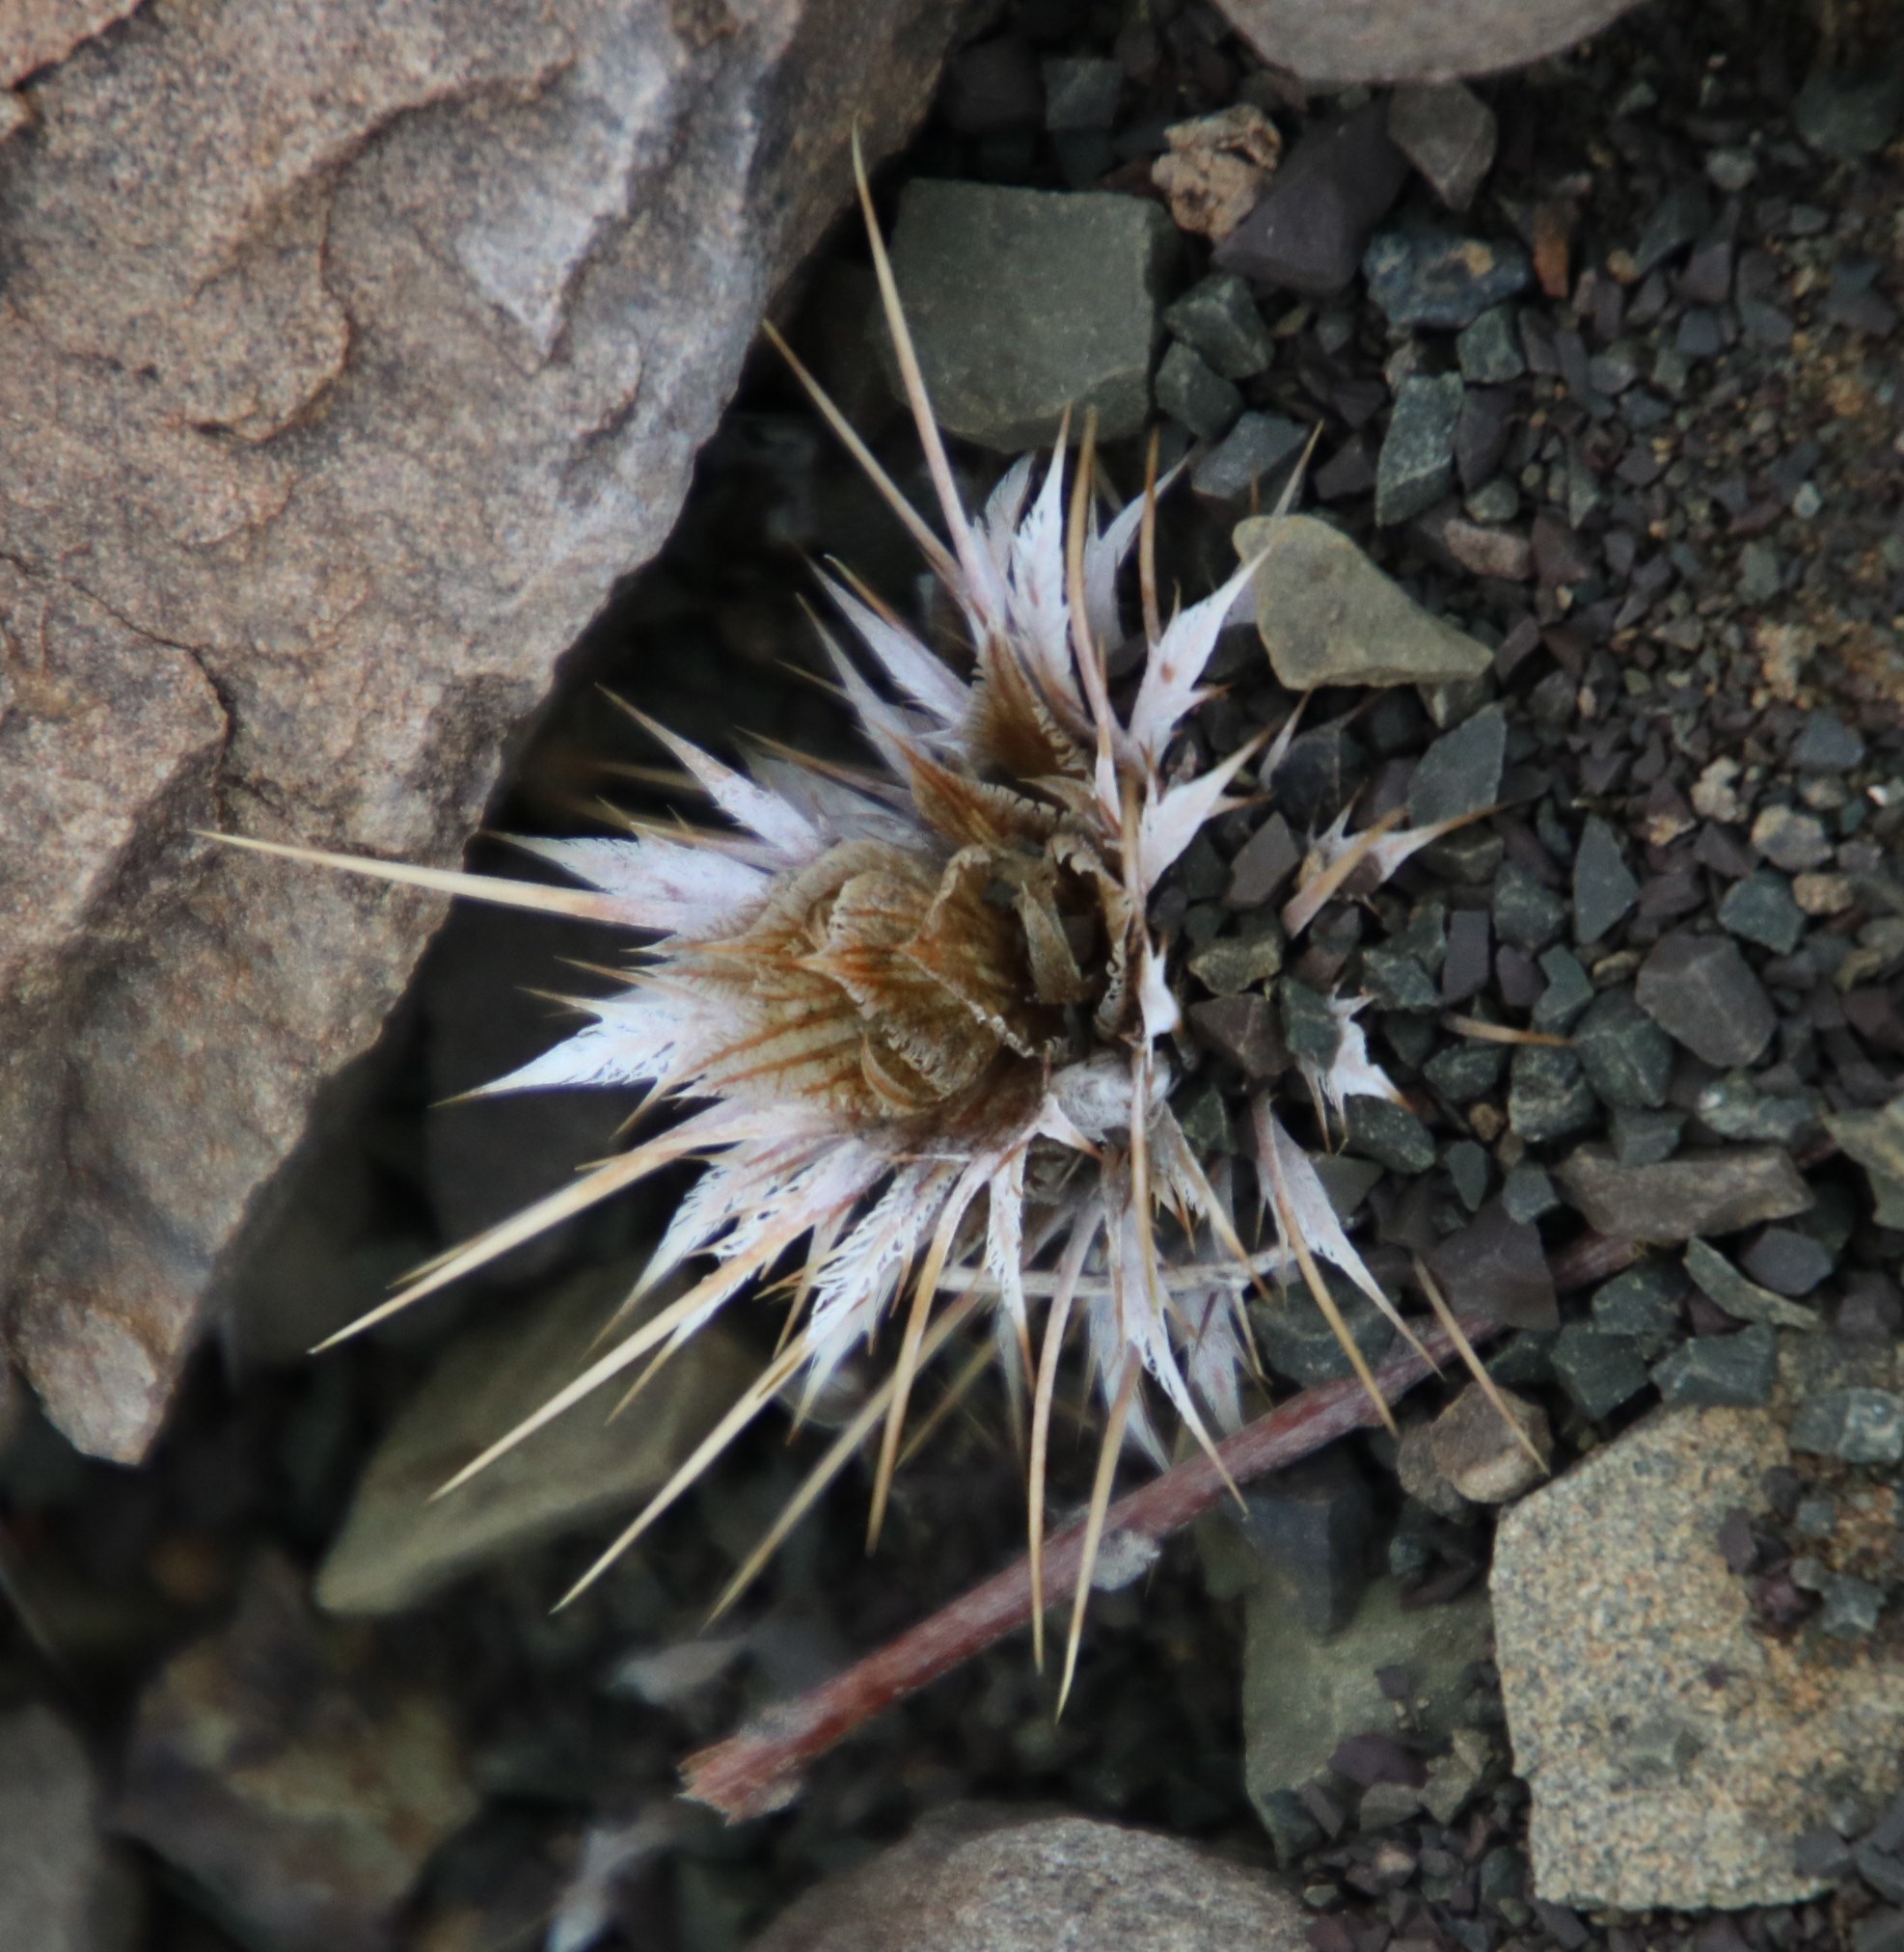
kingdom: Plantae
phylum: Tracheophyta
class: Magnoliopsida
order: Lamiales
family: Acanthaceae
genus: Acanthopsis
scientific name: Acanthopsis hoffmannseggiana
